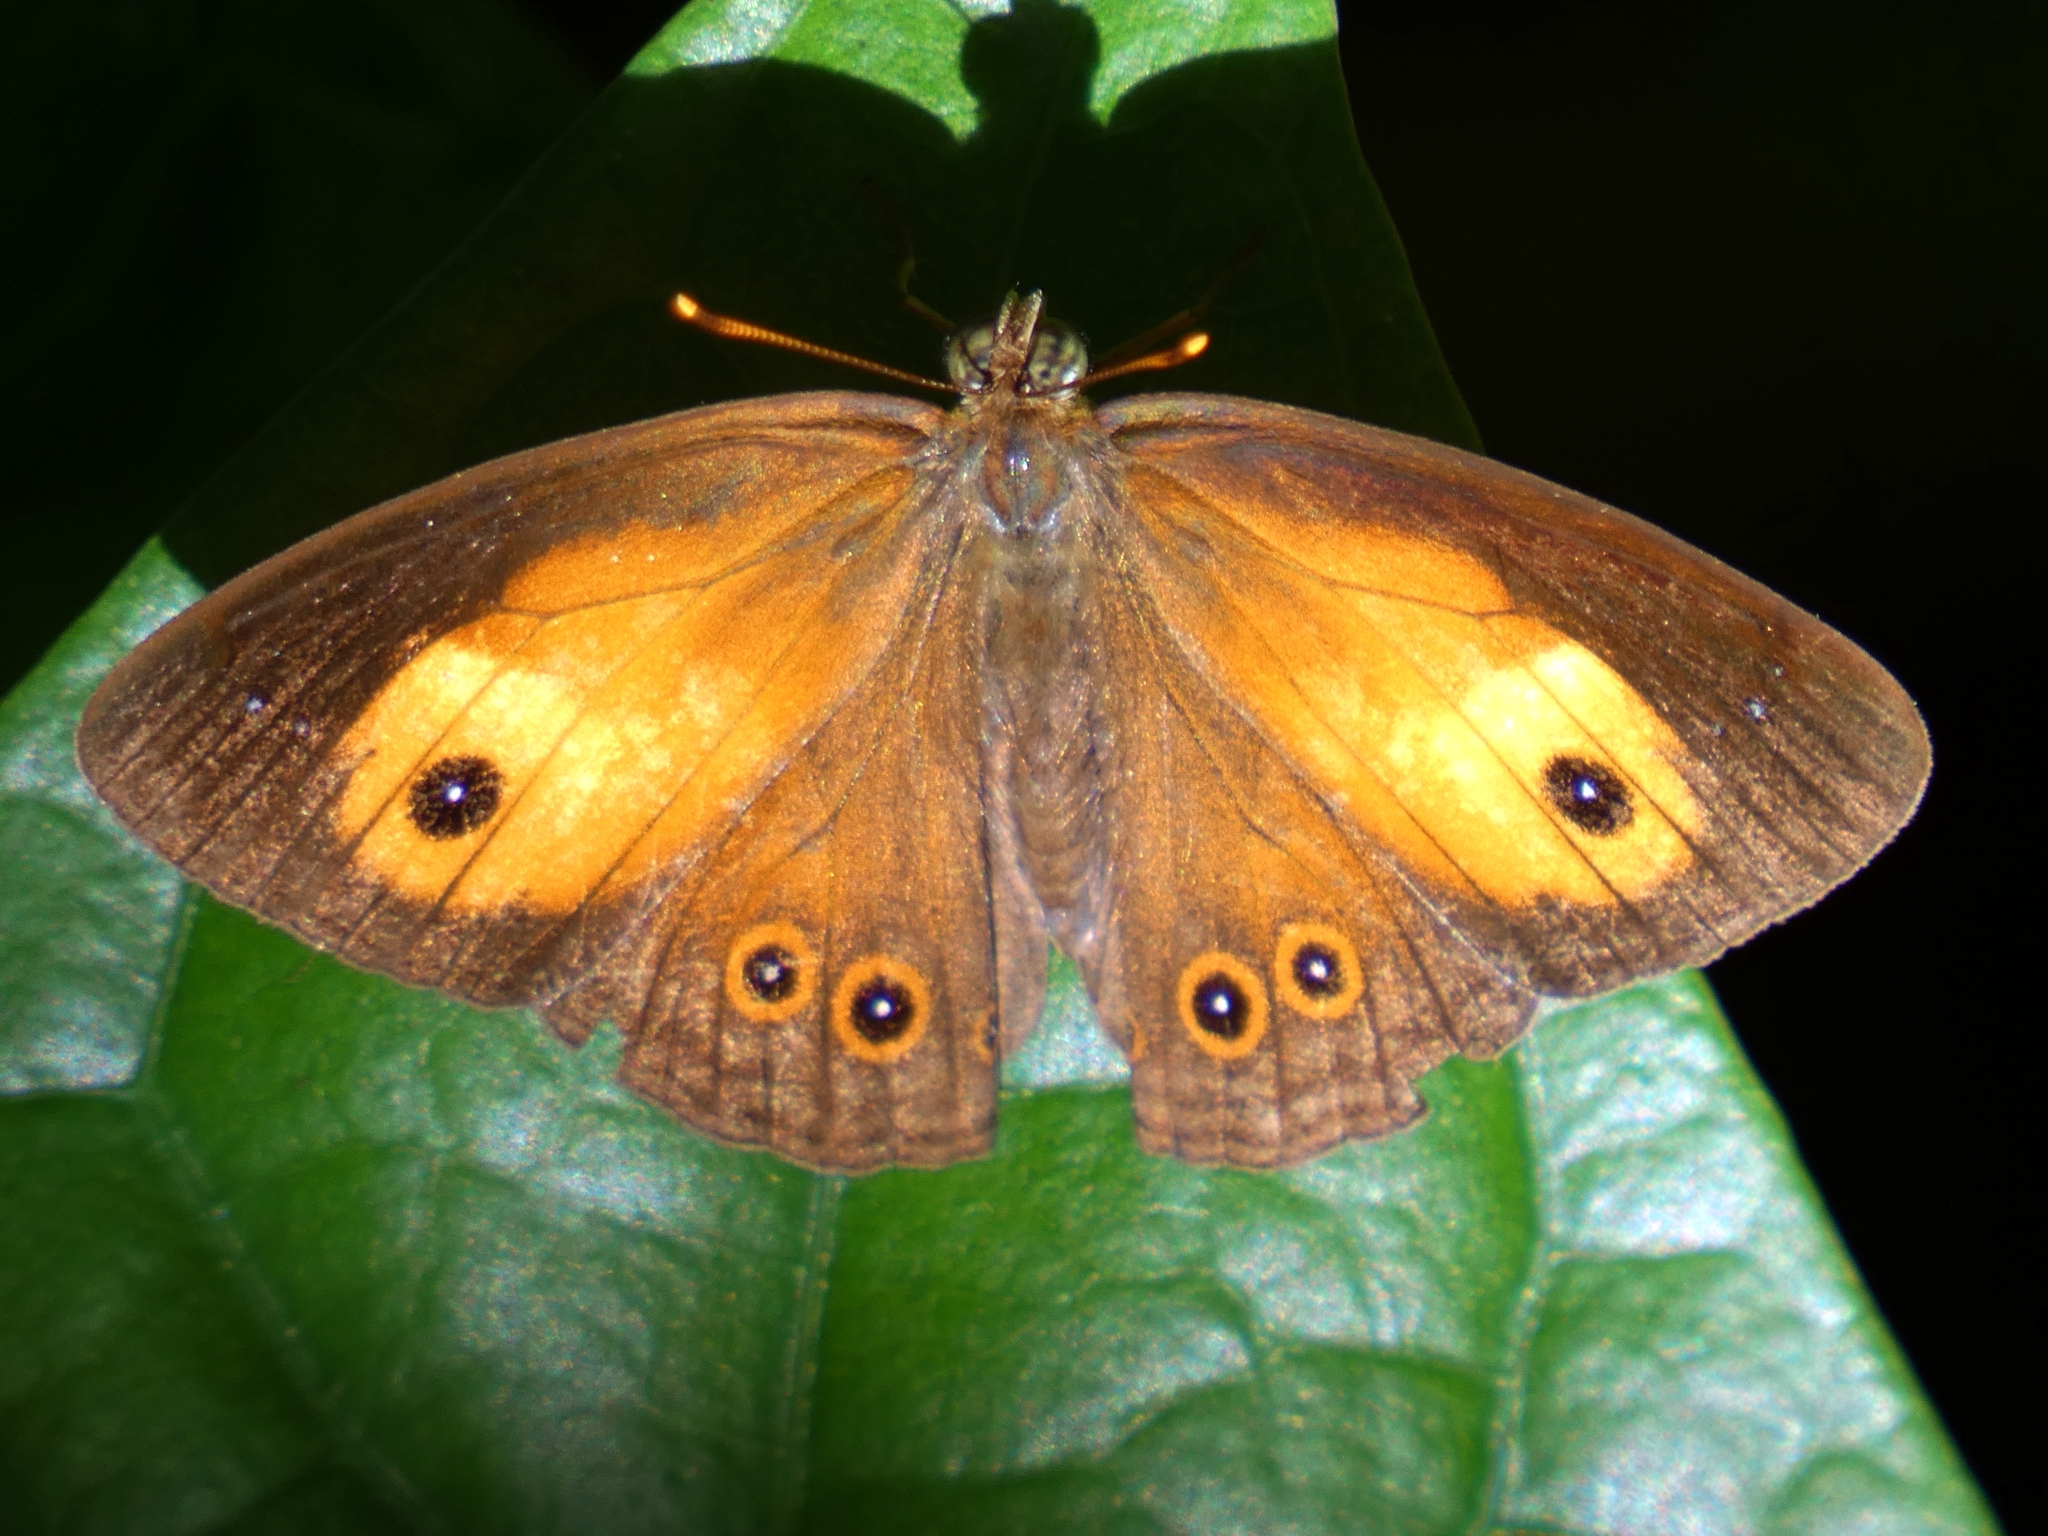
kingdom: Animalia
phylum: Arthropoda
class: Insecta
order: Lepidoptera
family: Nymphalidae
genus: Mycalesis
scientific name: Mycalesis terminus
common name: Orange bushbrown
